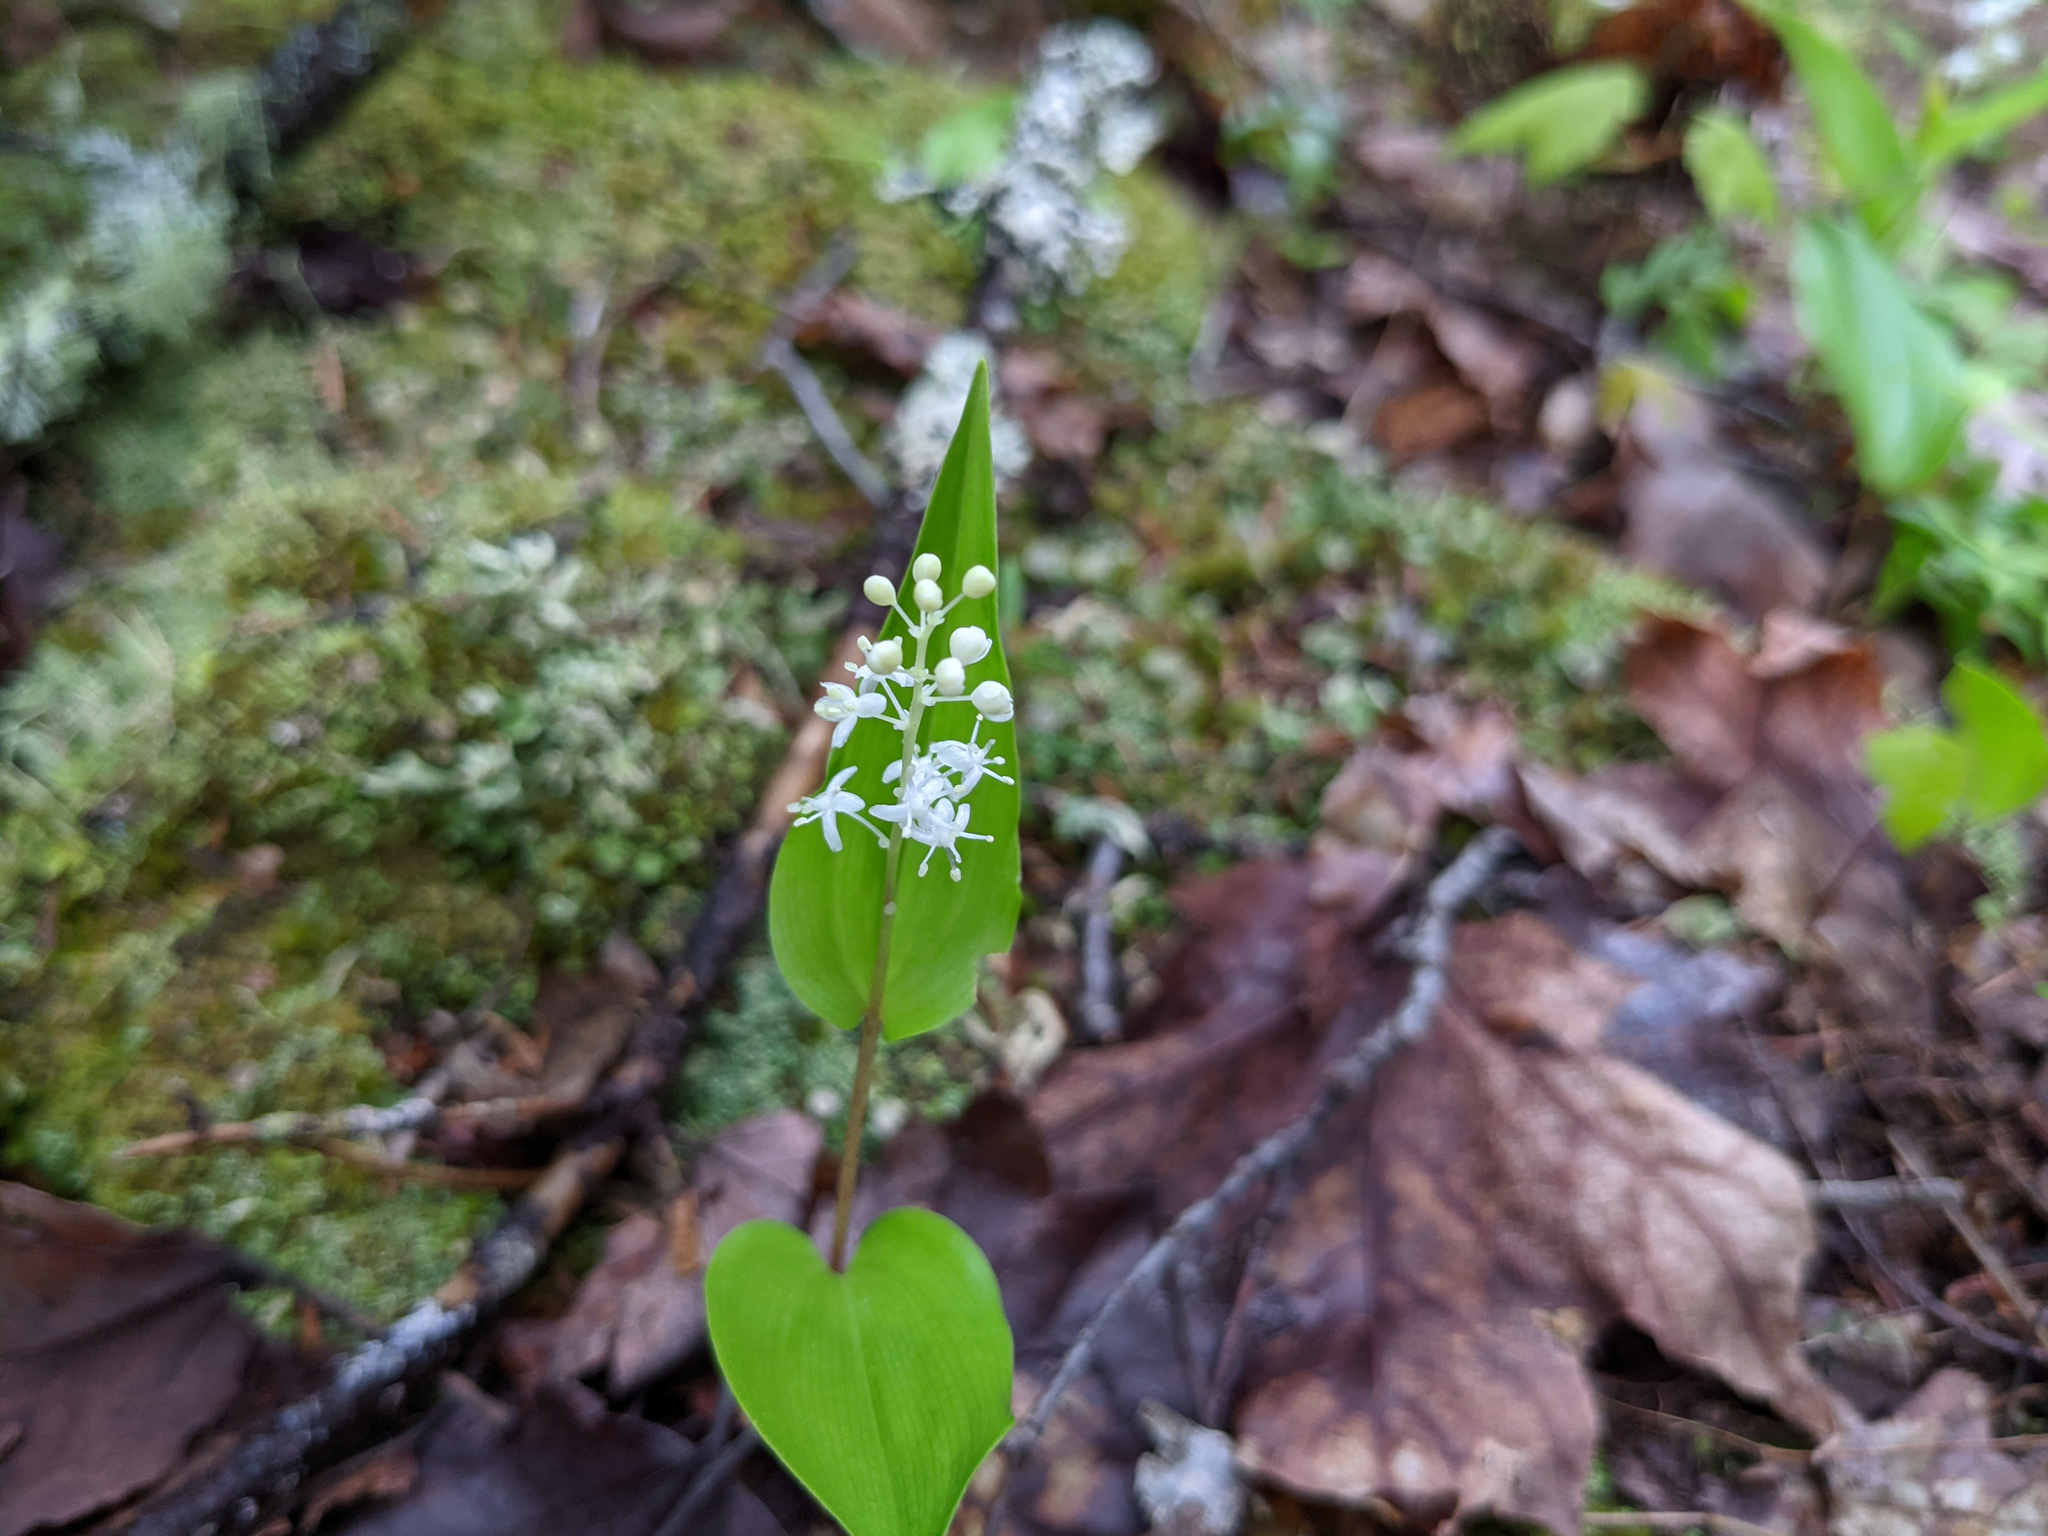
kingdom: Plantae
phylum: Tracheophyta
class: Liliopsida
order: Asparagales
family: Asparagaceae
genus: Maianthemum
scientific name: Maianthemum canadense
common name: False lily-of-the-valley
